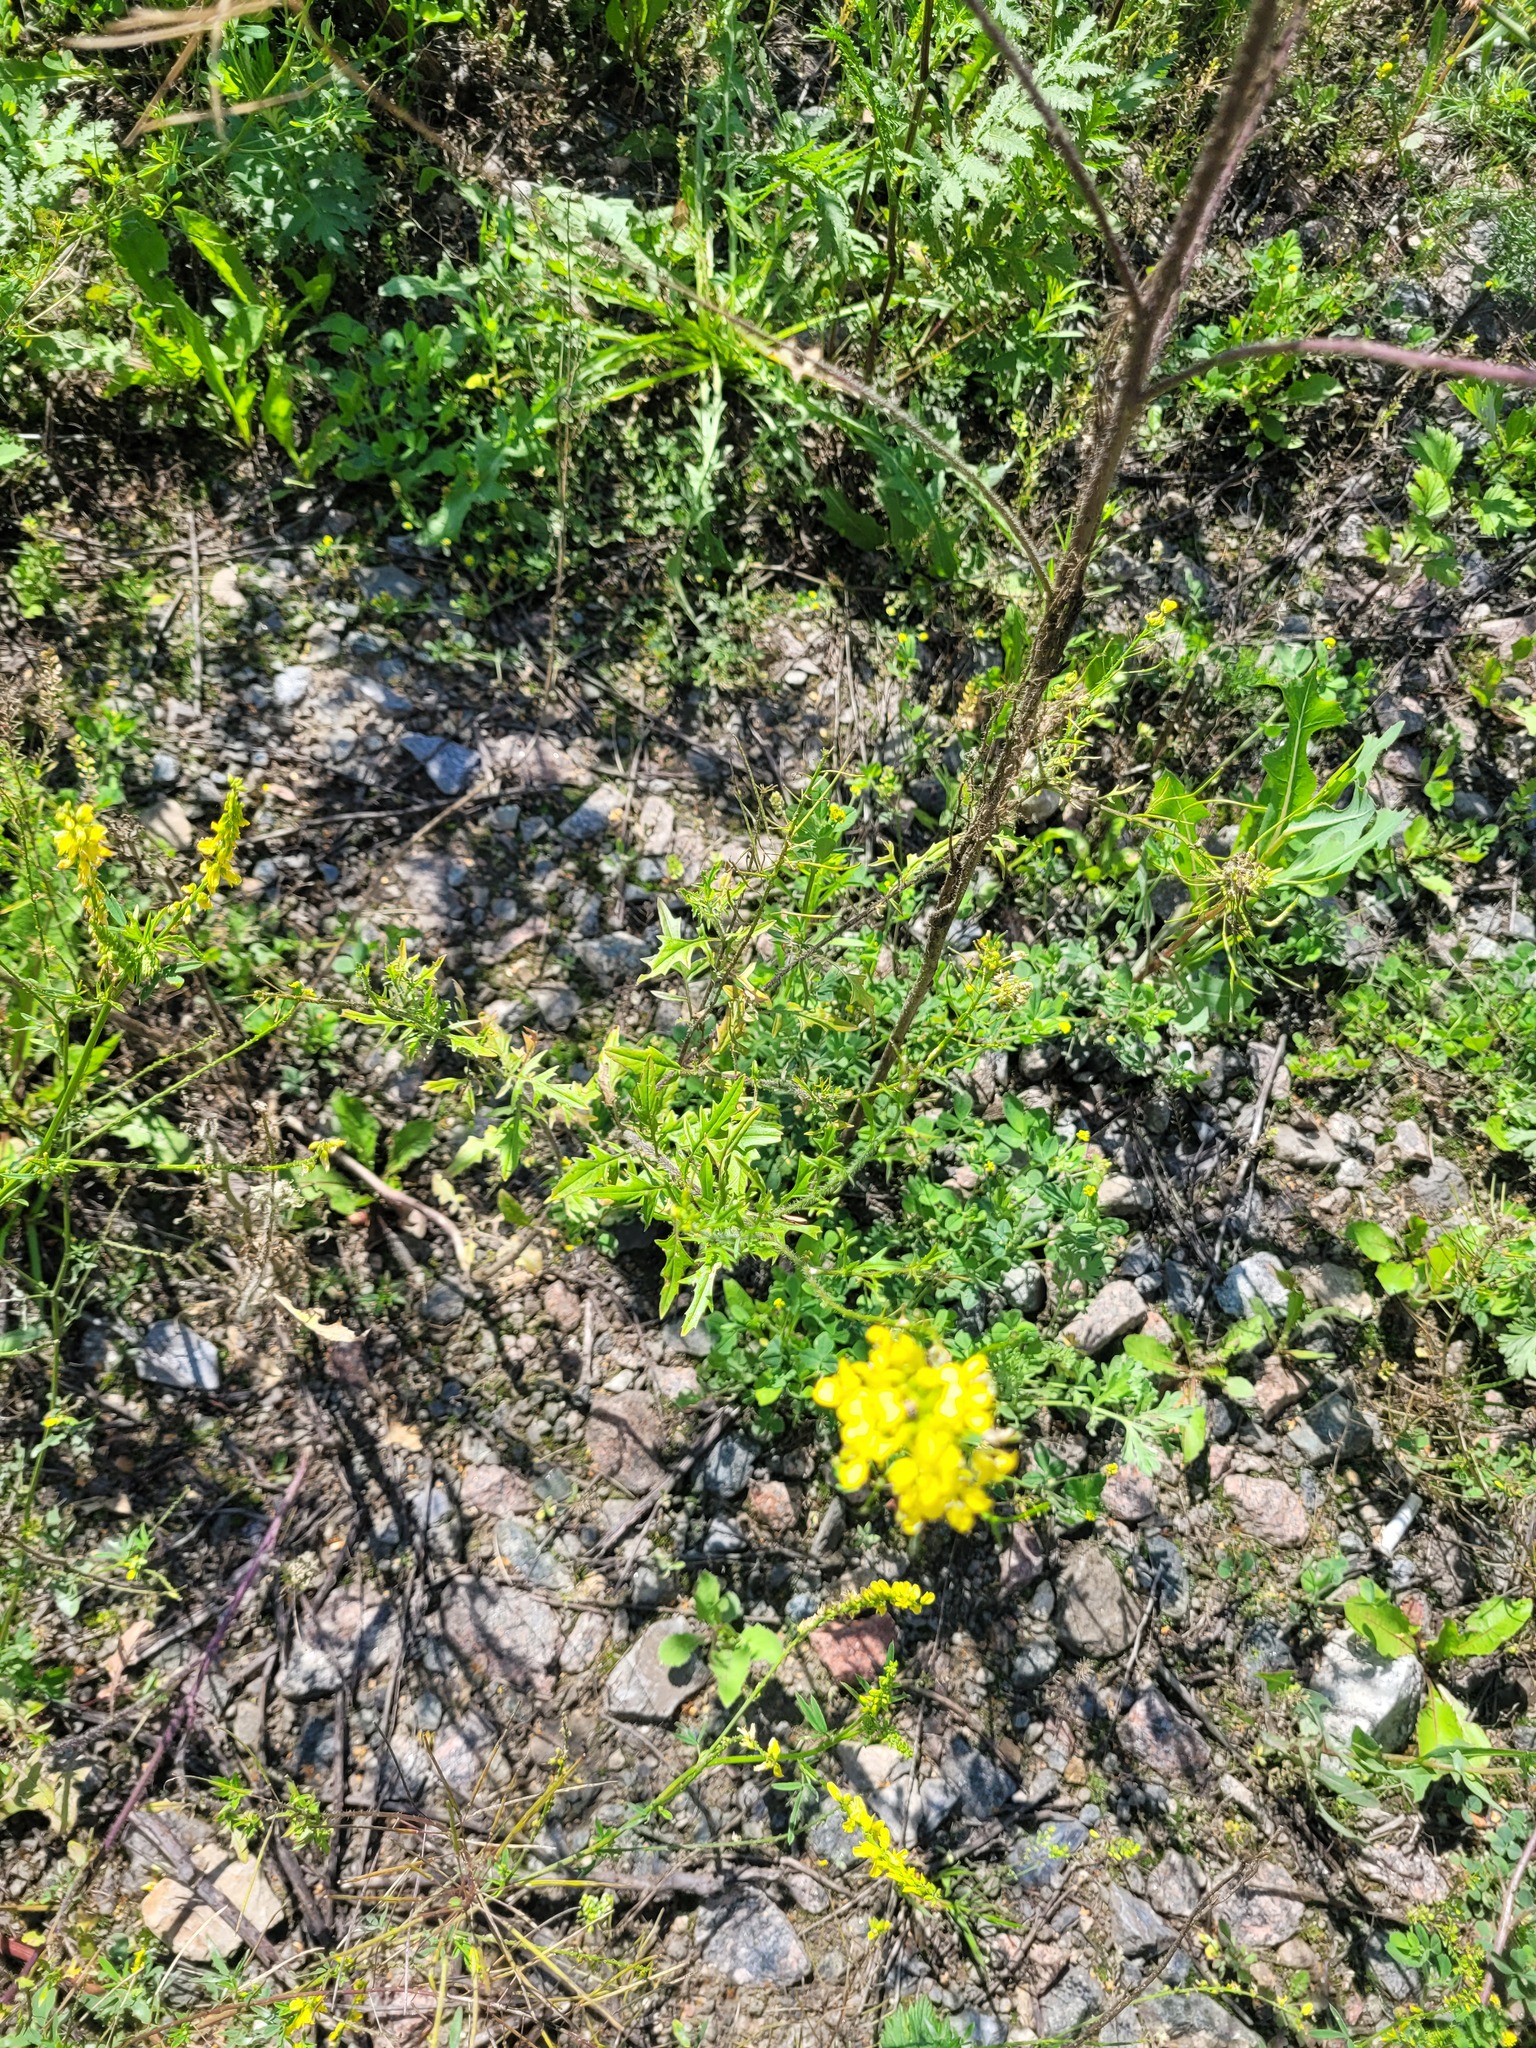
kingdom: Plantae
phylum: Tracheophyta
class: Magnoliopsida
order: Brassicales
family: Brassicaceae
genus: Sisymbrium
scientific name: Sisymbrium loeselii
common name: False london-rocket
